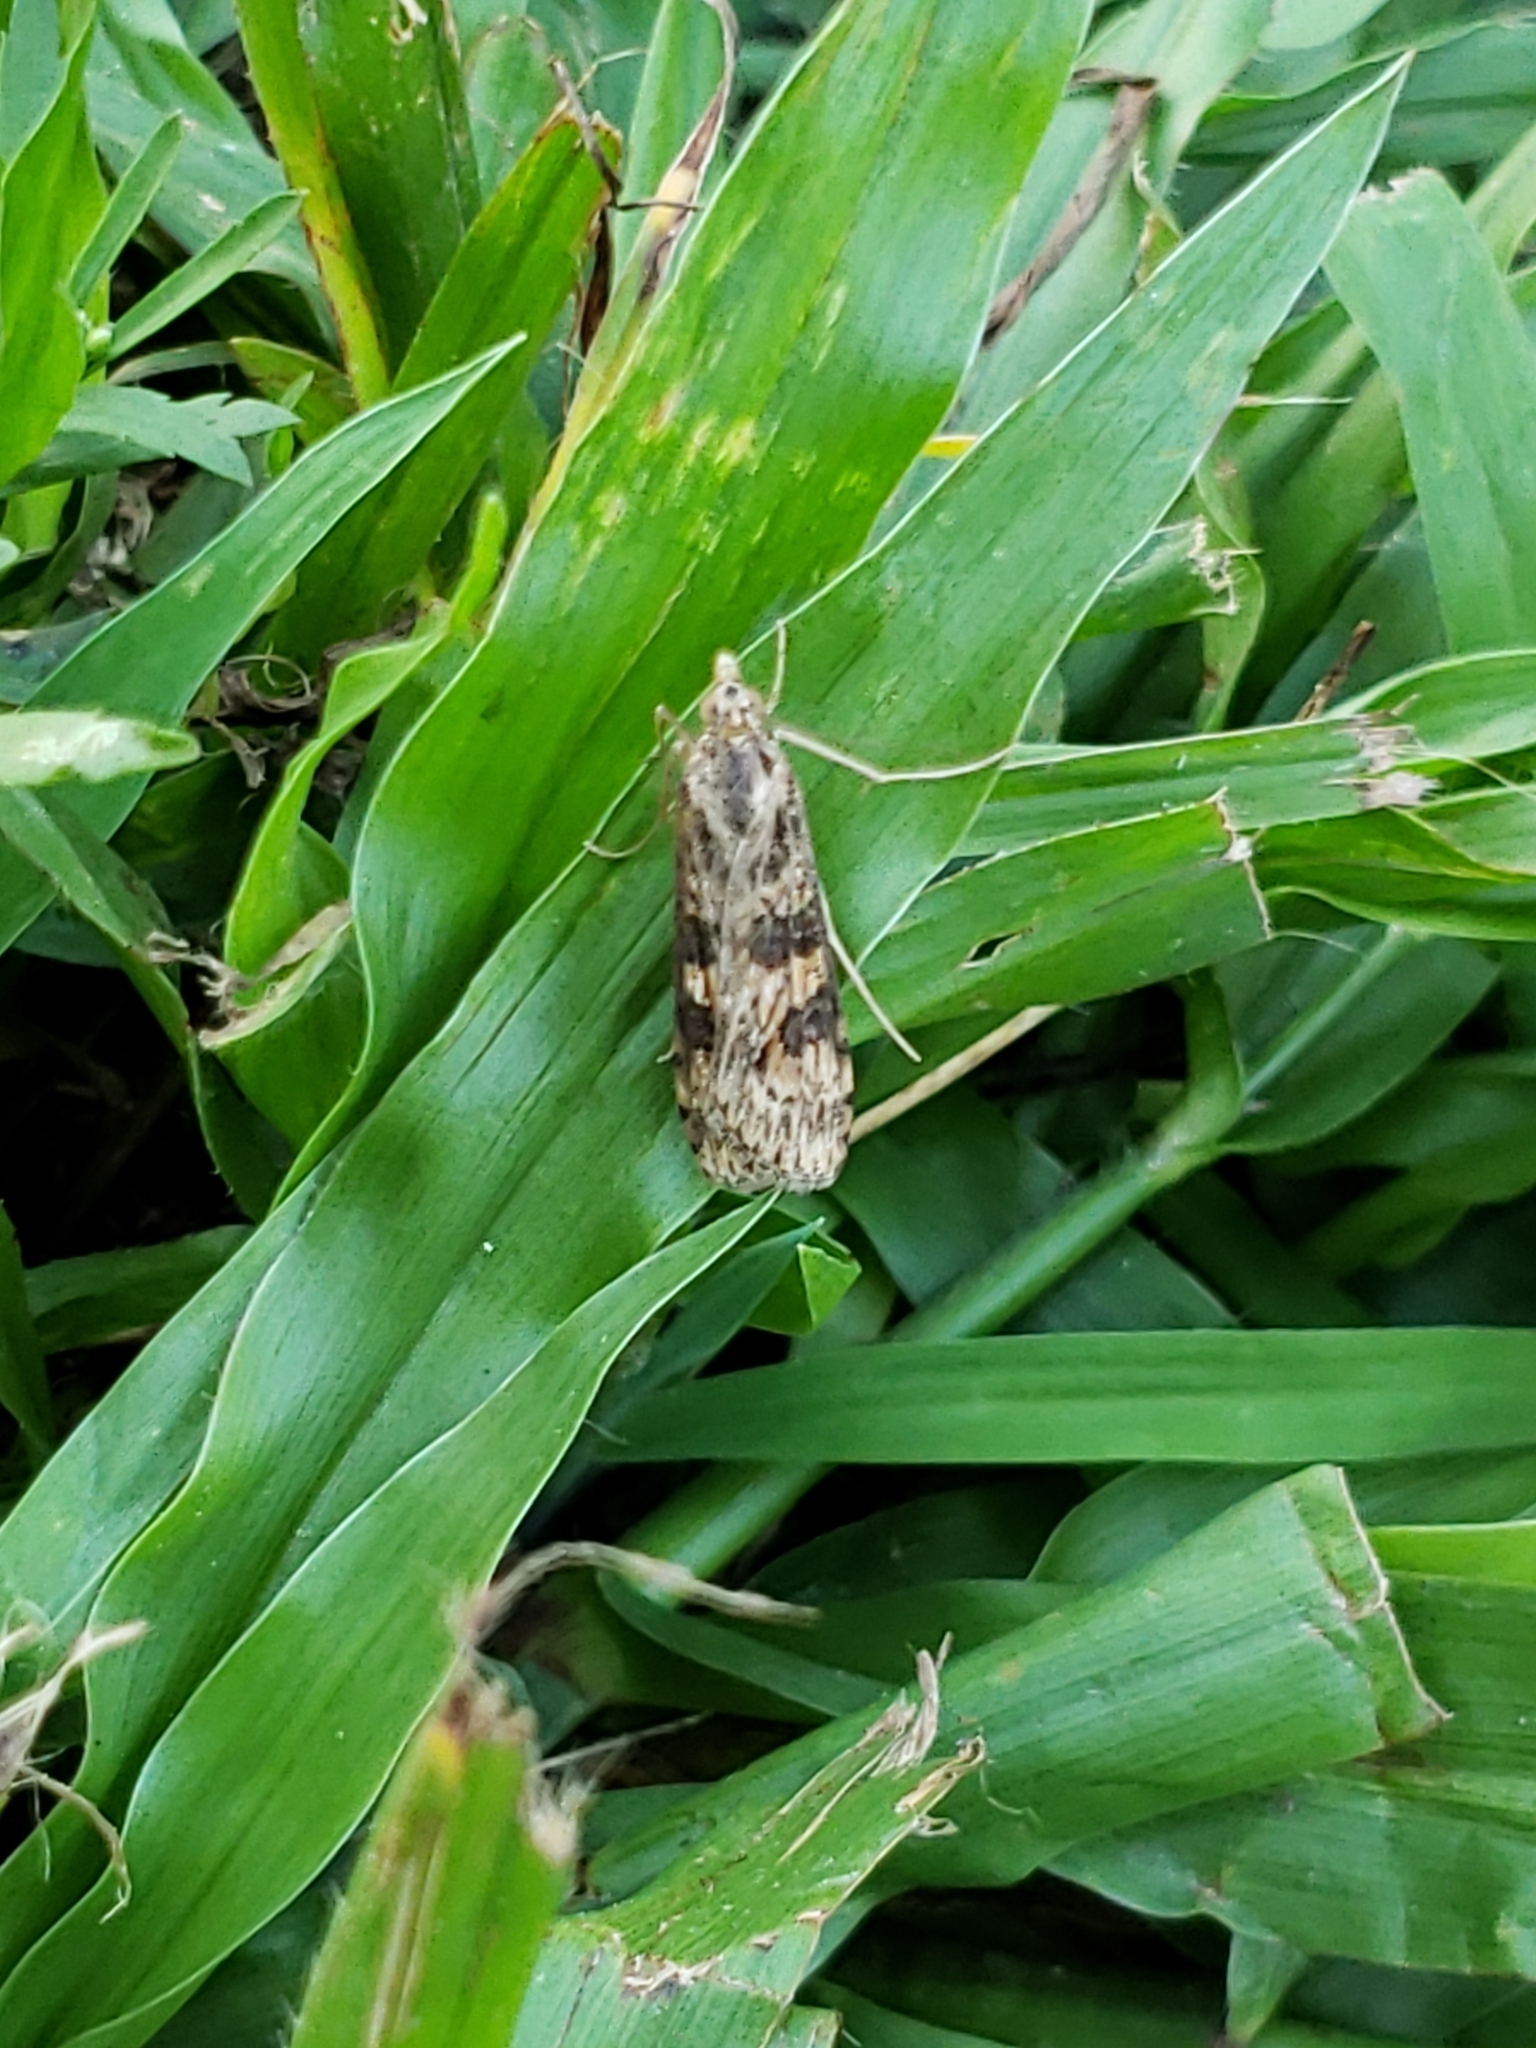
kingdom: Animalia
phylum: Arthropoda
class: Insecta
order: Lepidoptera
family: Crambidae
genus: Nomophila
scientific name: Nomophila nearctica
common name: American rush veneer
